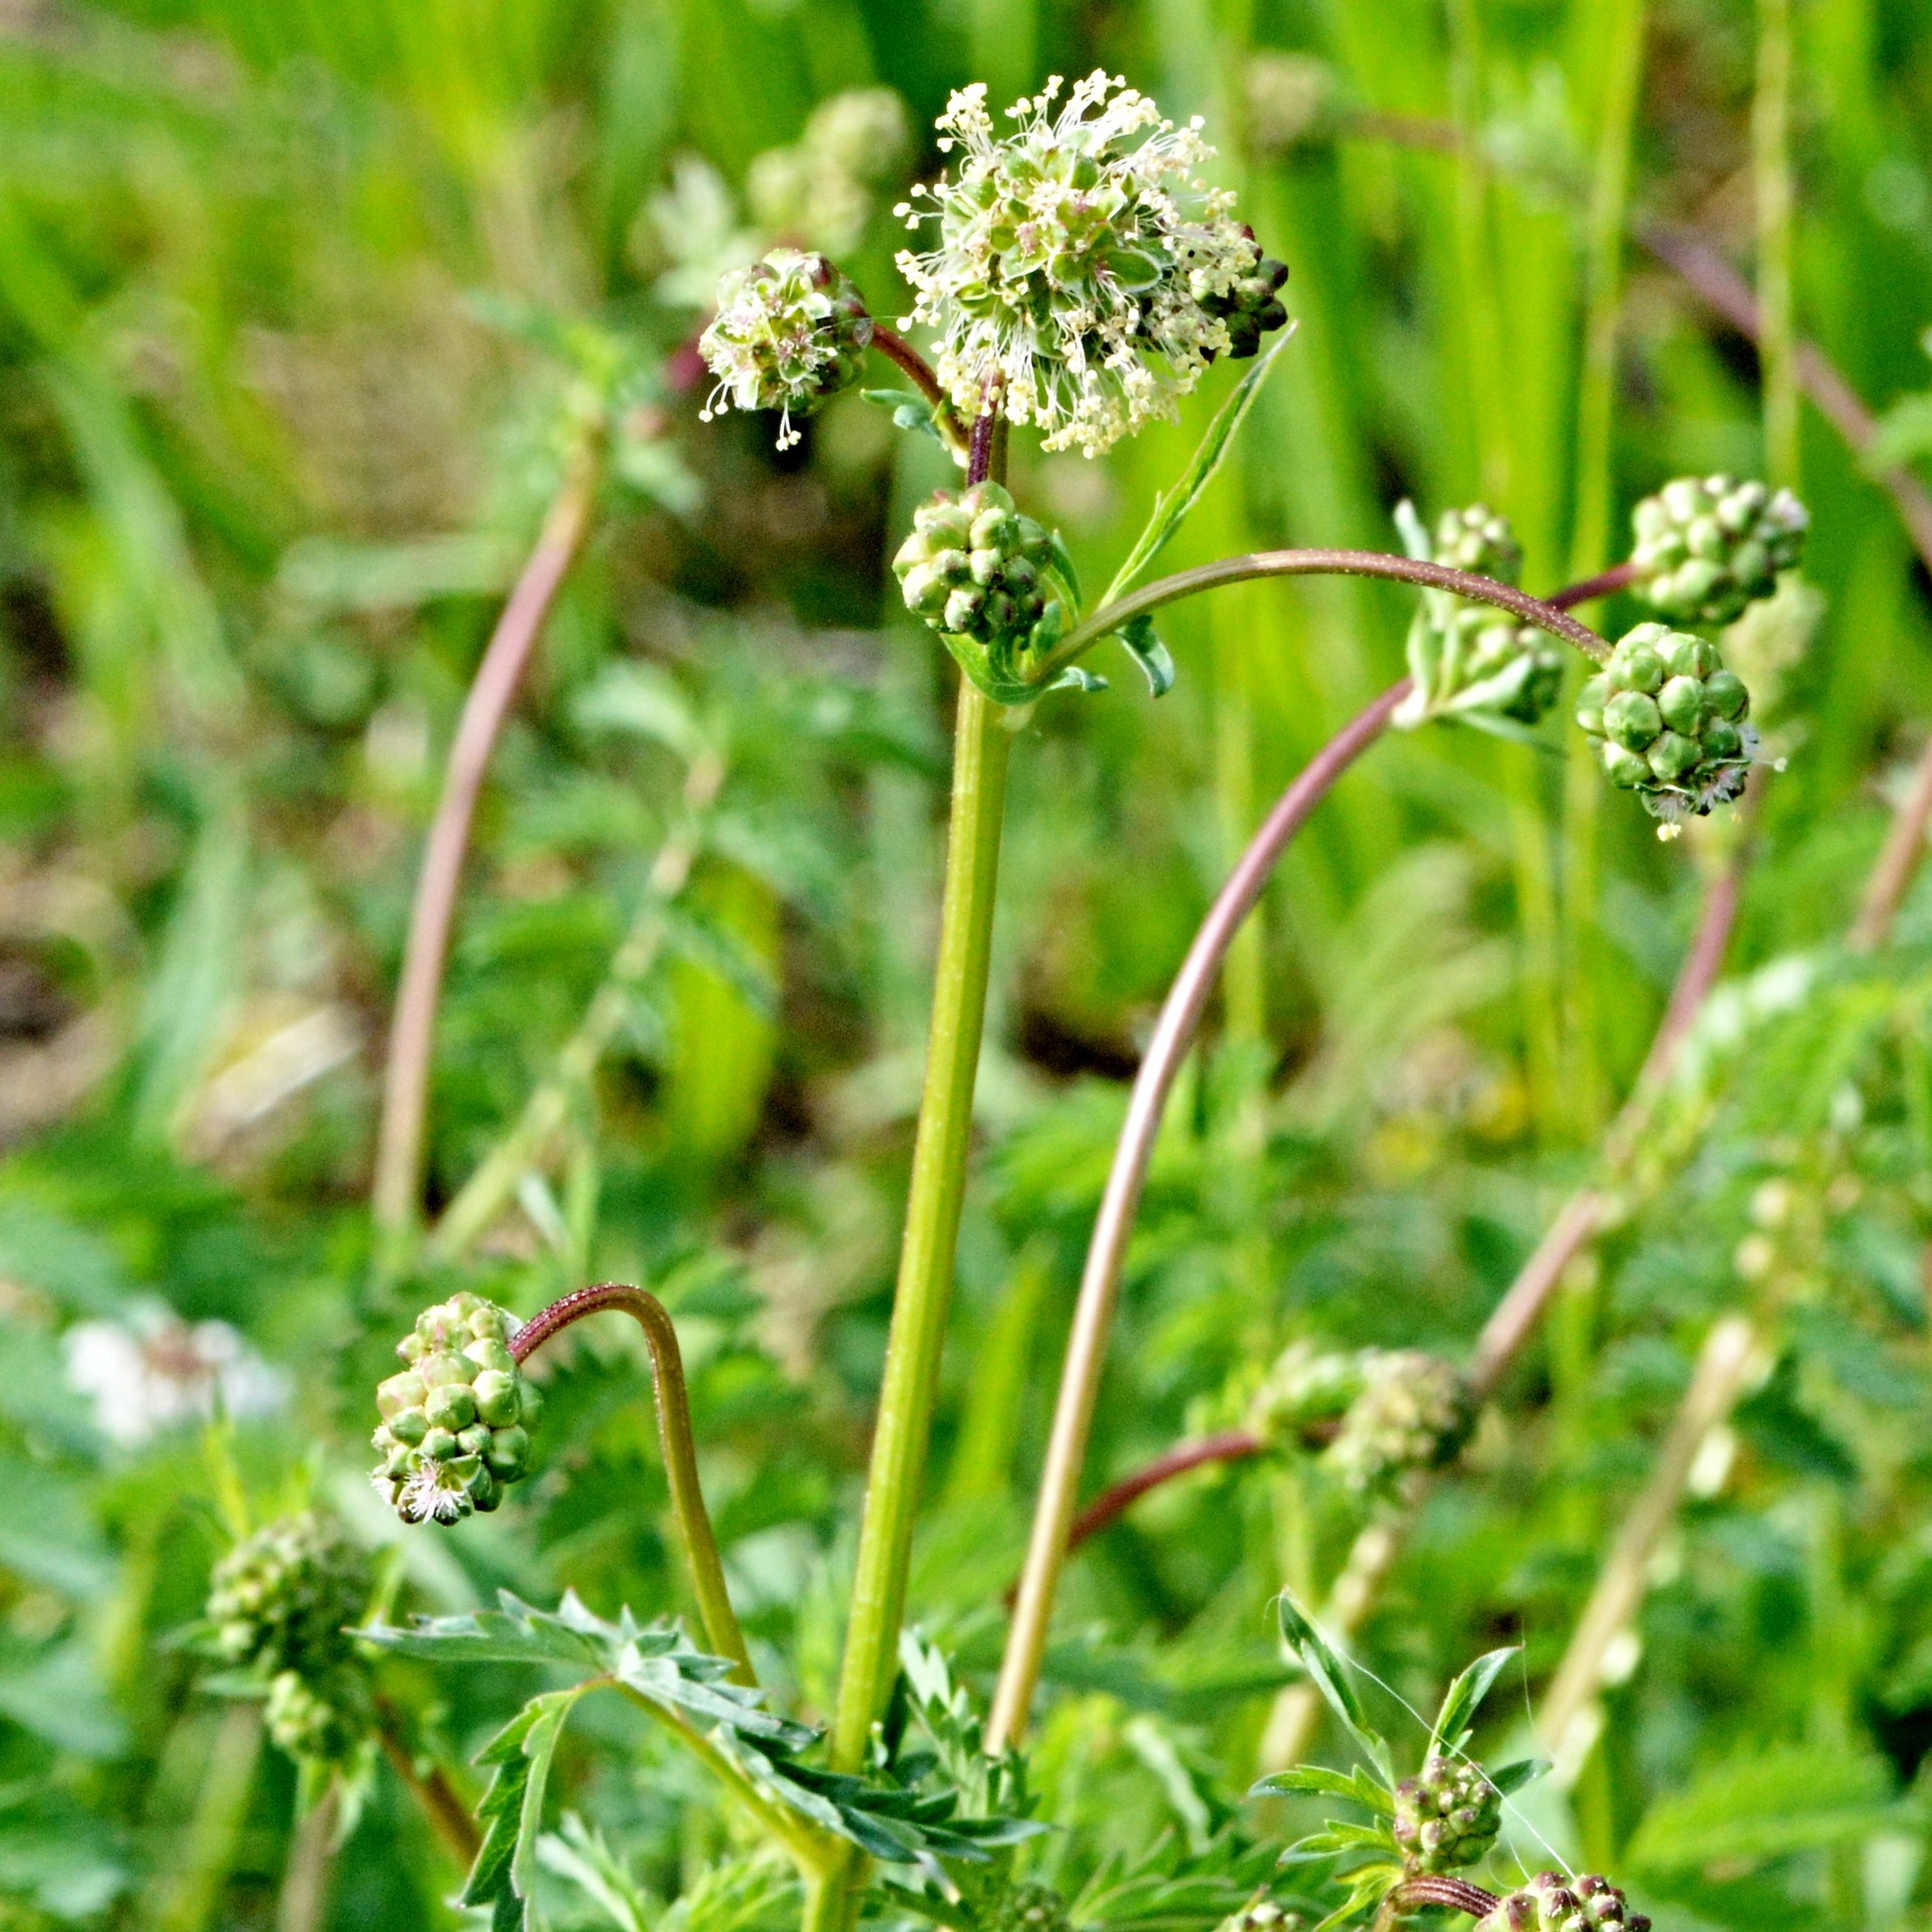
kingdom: Plantae
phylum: Tracheophyta
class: Magnoliopsida
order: Rosales
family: Rosaceae
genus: Poterium
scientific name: Poterium sanguisorba
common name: Salad burnet
